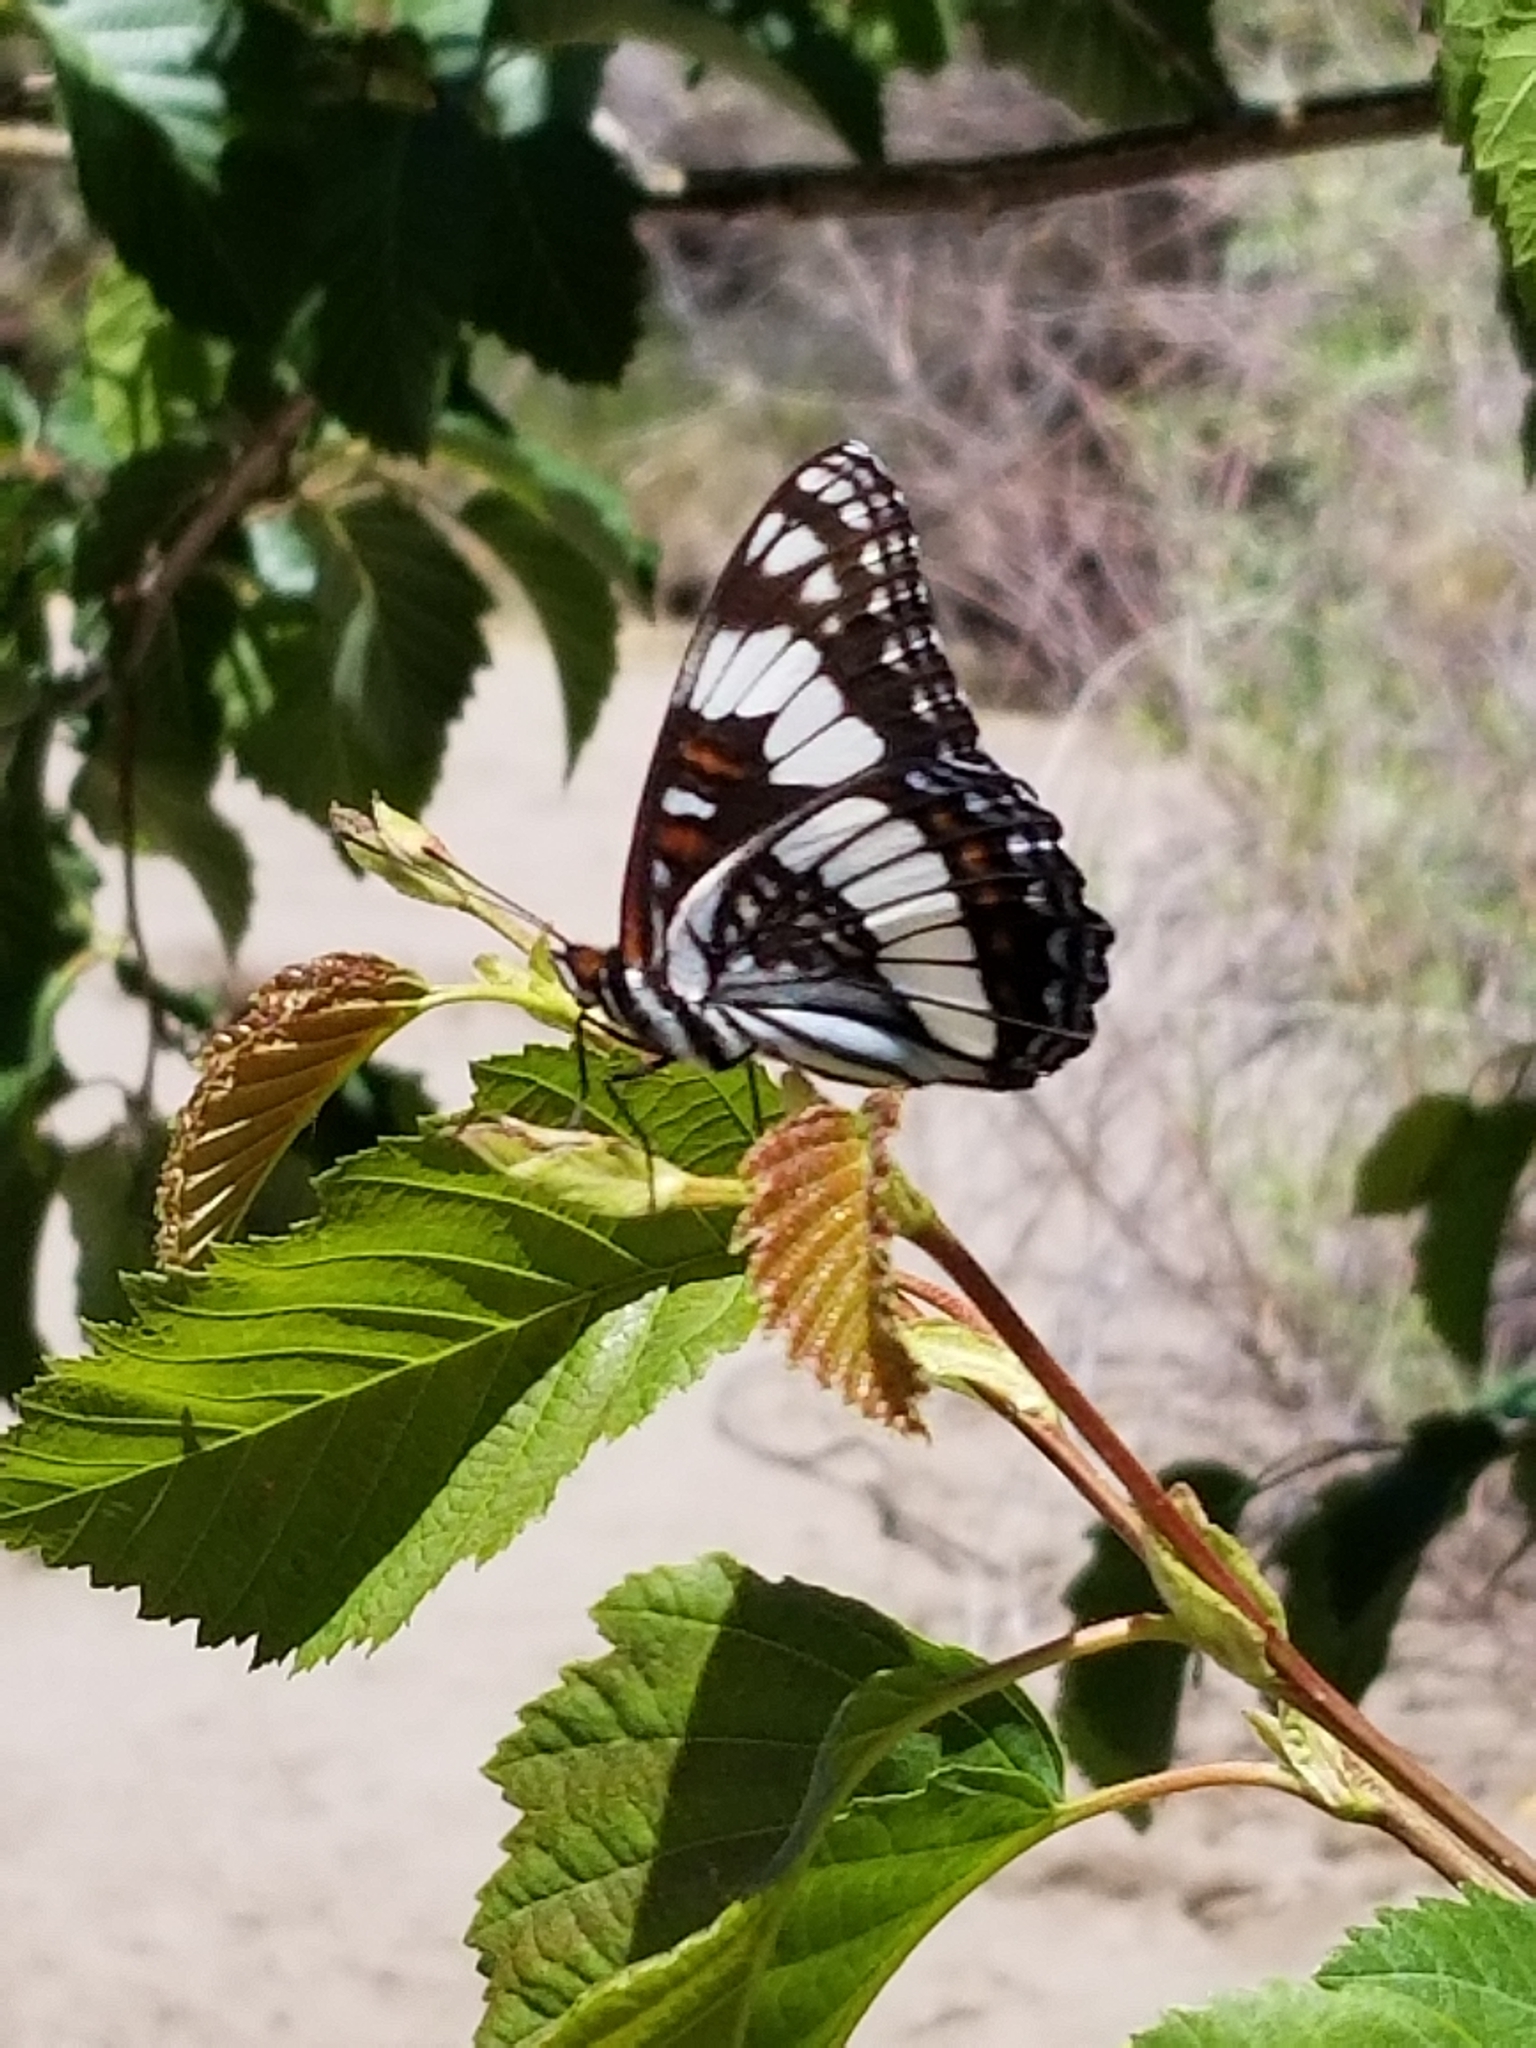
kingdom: Animalia
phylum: Arthropoda
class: Insecta
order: Lepidoptera
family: Nymphalidae
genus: Limenitis
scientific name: Limenitis weidemeyerii
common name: Weidemeyer's admiral
